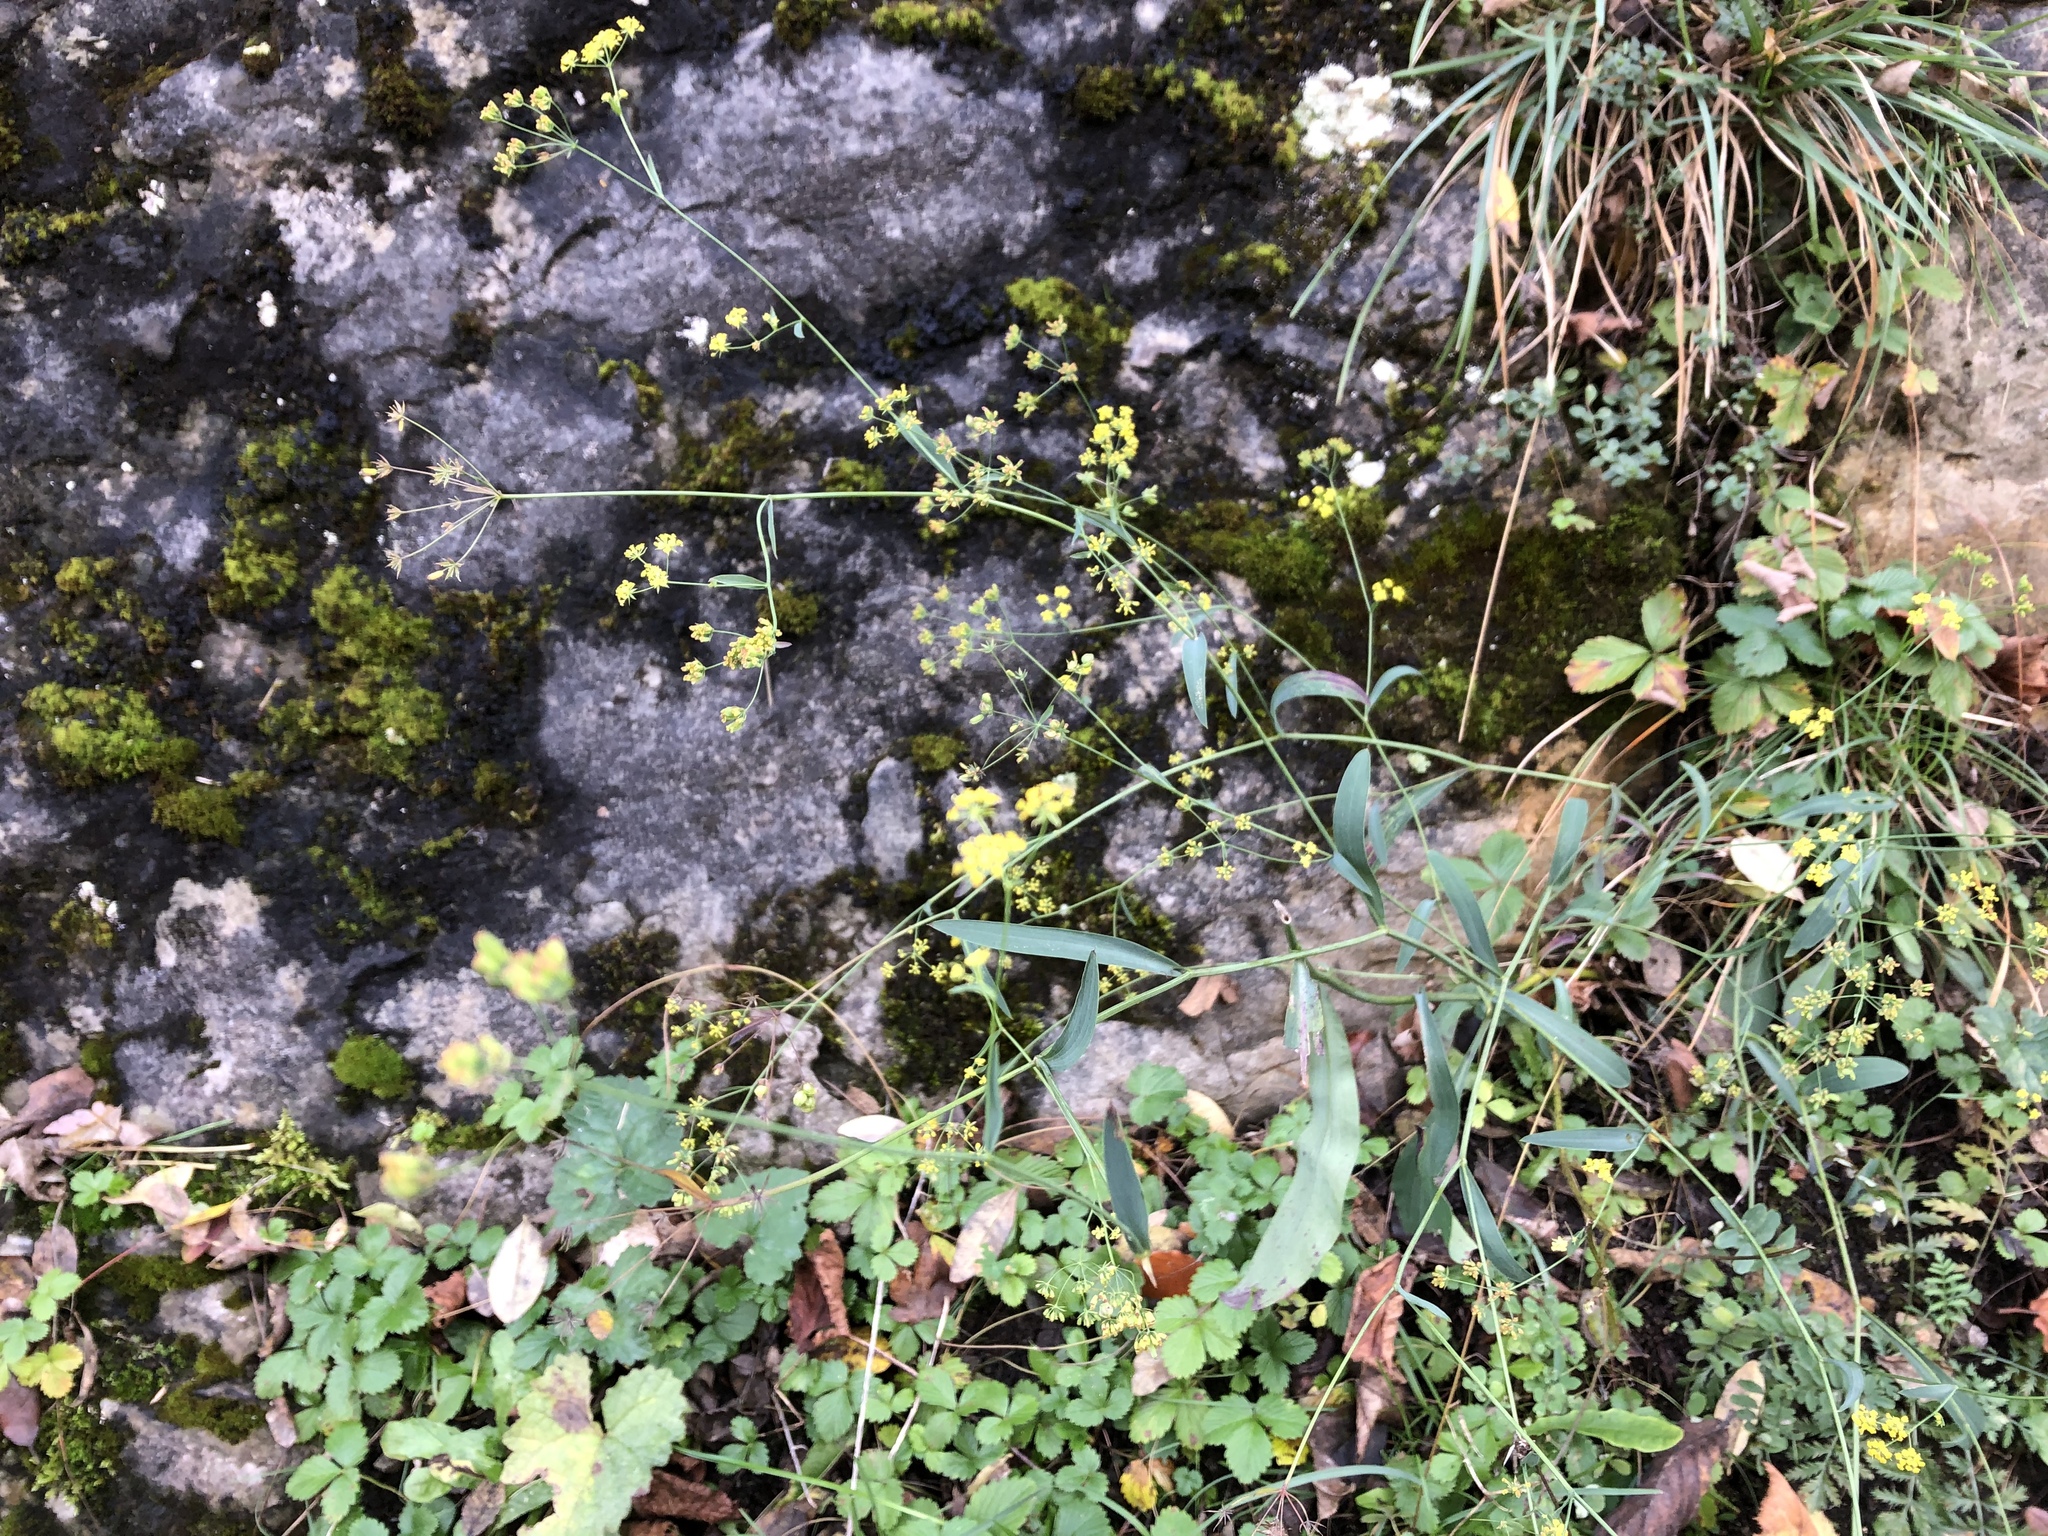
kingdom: Plantae
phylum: Tracheophyta
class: Magnoliopsida
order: Apiales
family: Apiaceae
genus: Bupleurum
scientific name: Bupleurum falcatum
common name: Sickle-leaved hare's-ear
